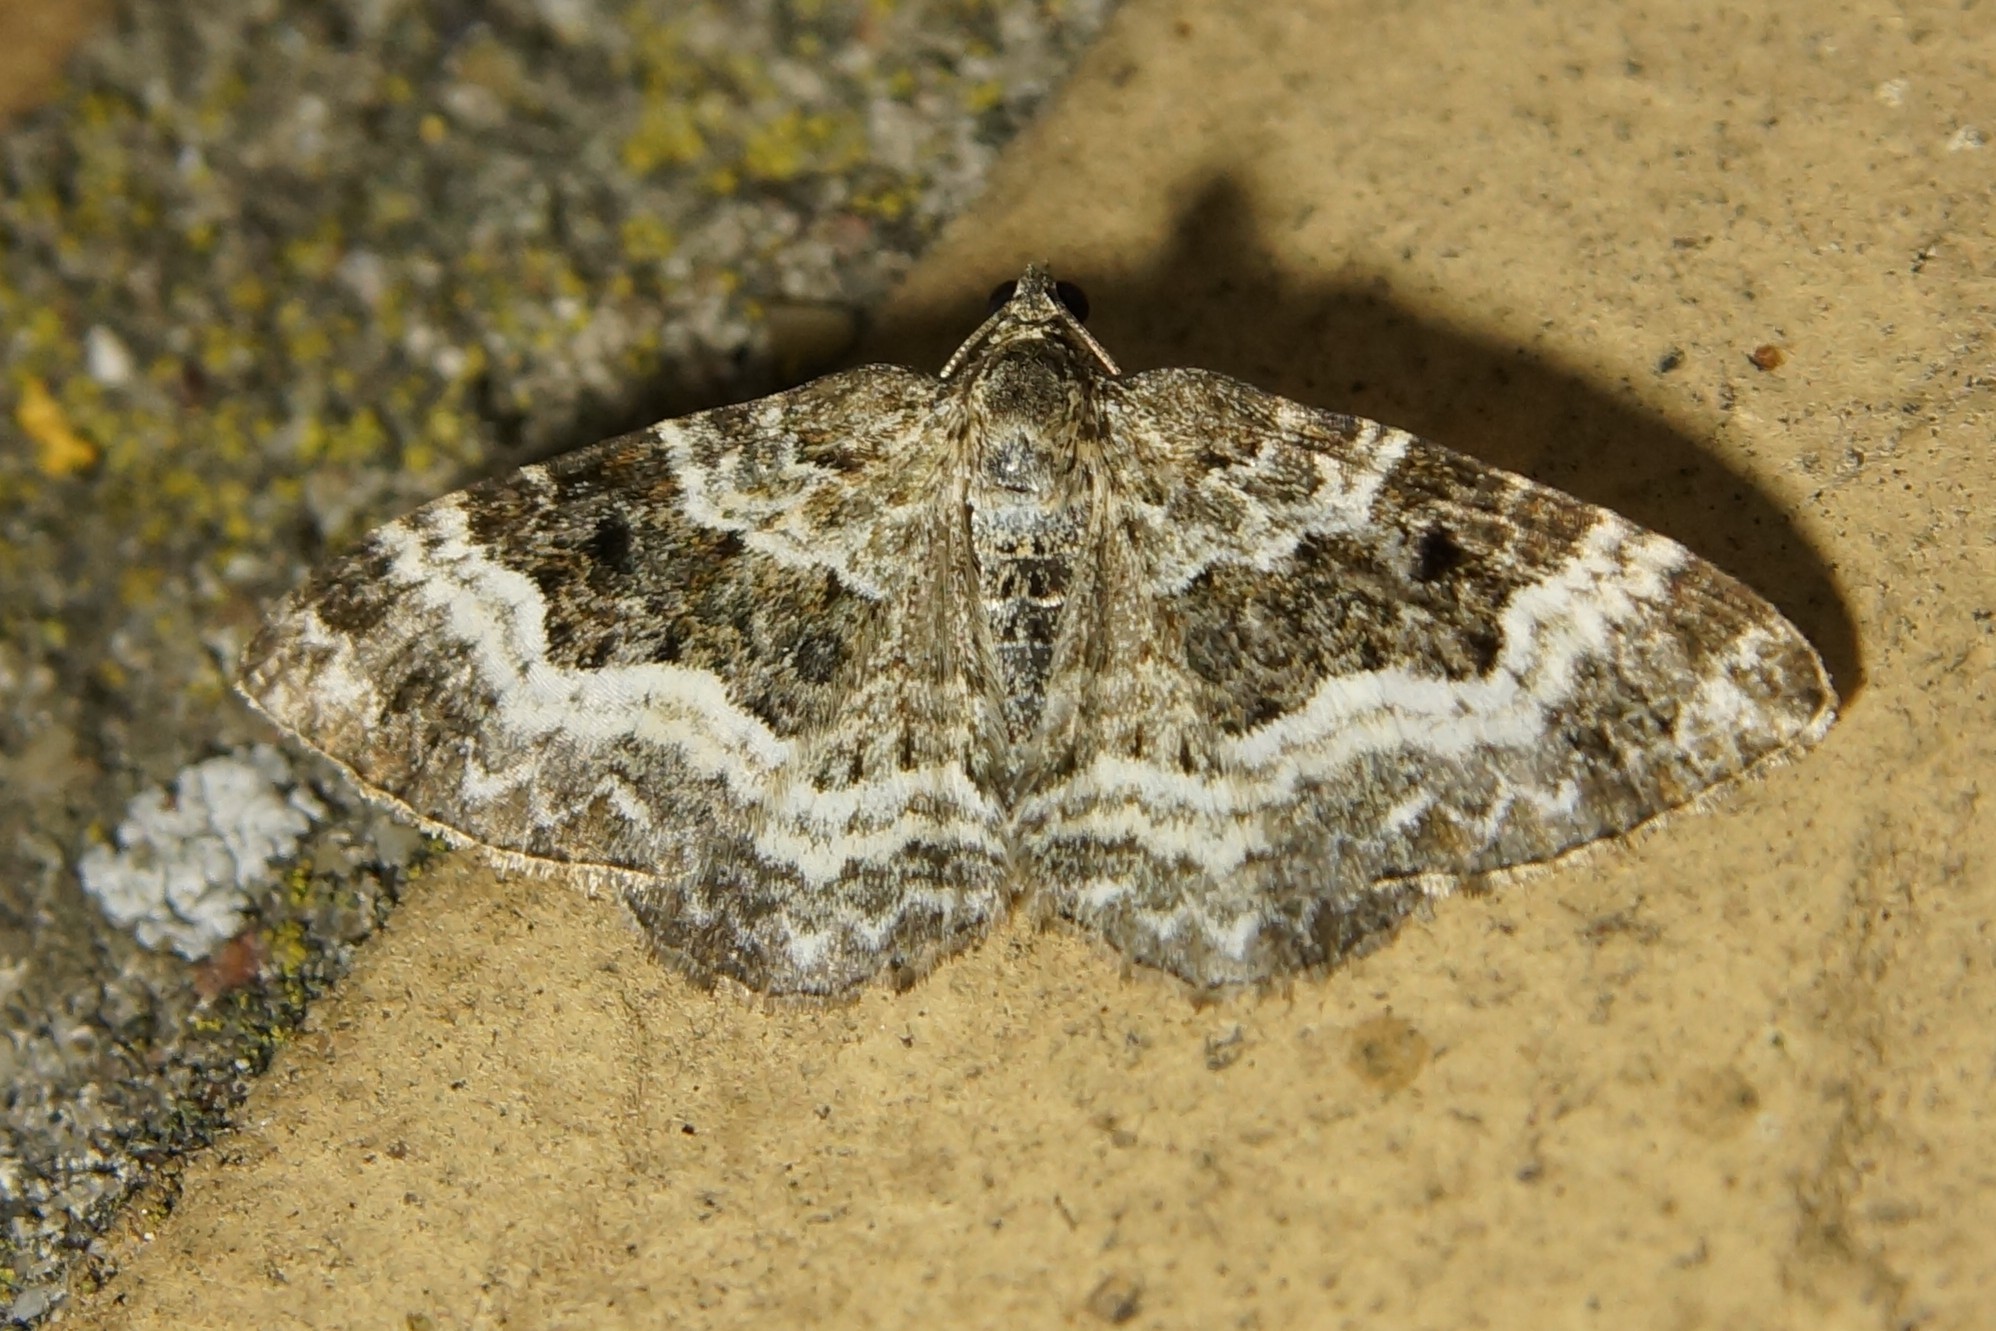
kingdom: Animalia
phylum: Arthropoda
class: Insecta
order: Lepidoptera
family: Geometridae
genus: Epirrhoe
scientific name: Epirrhoe alternata
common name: Common carpet
